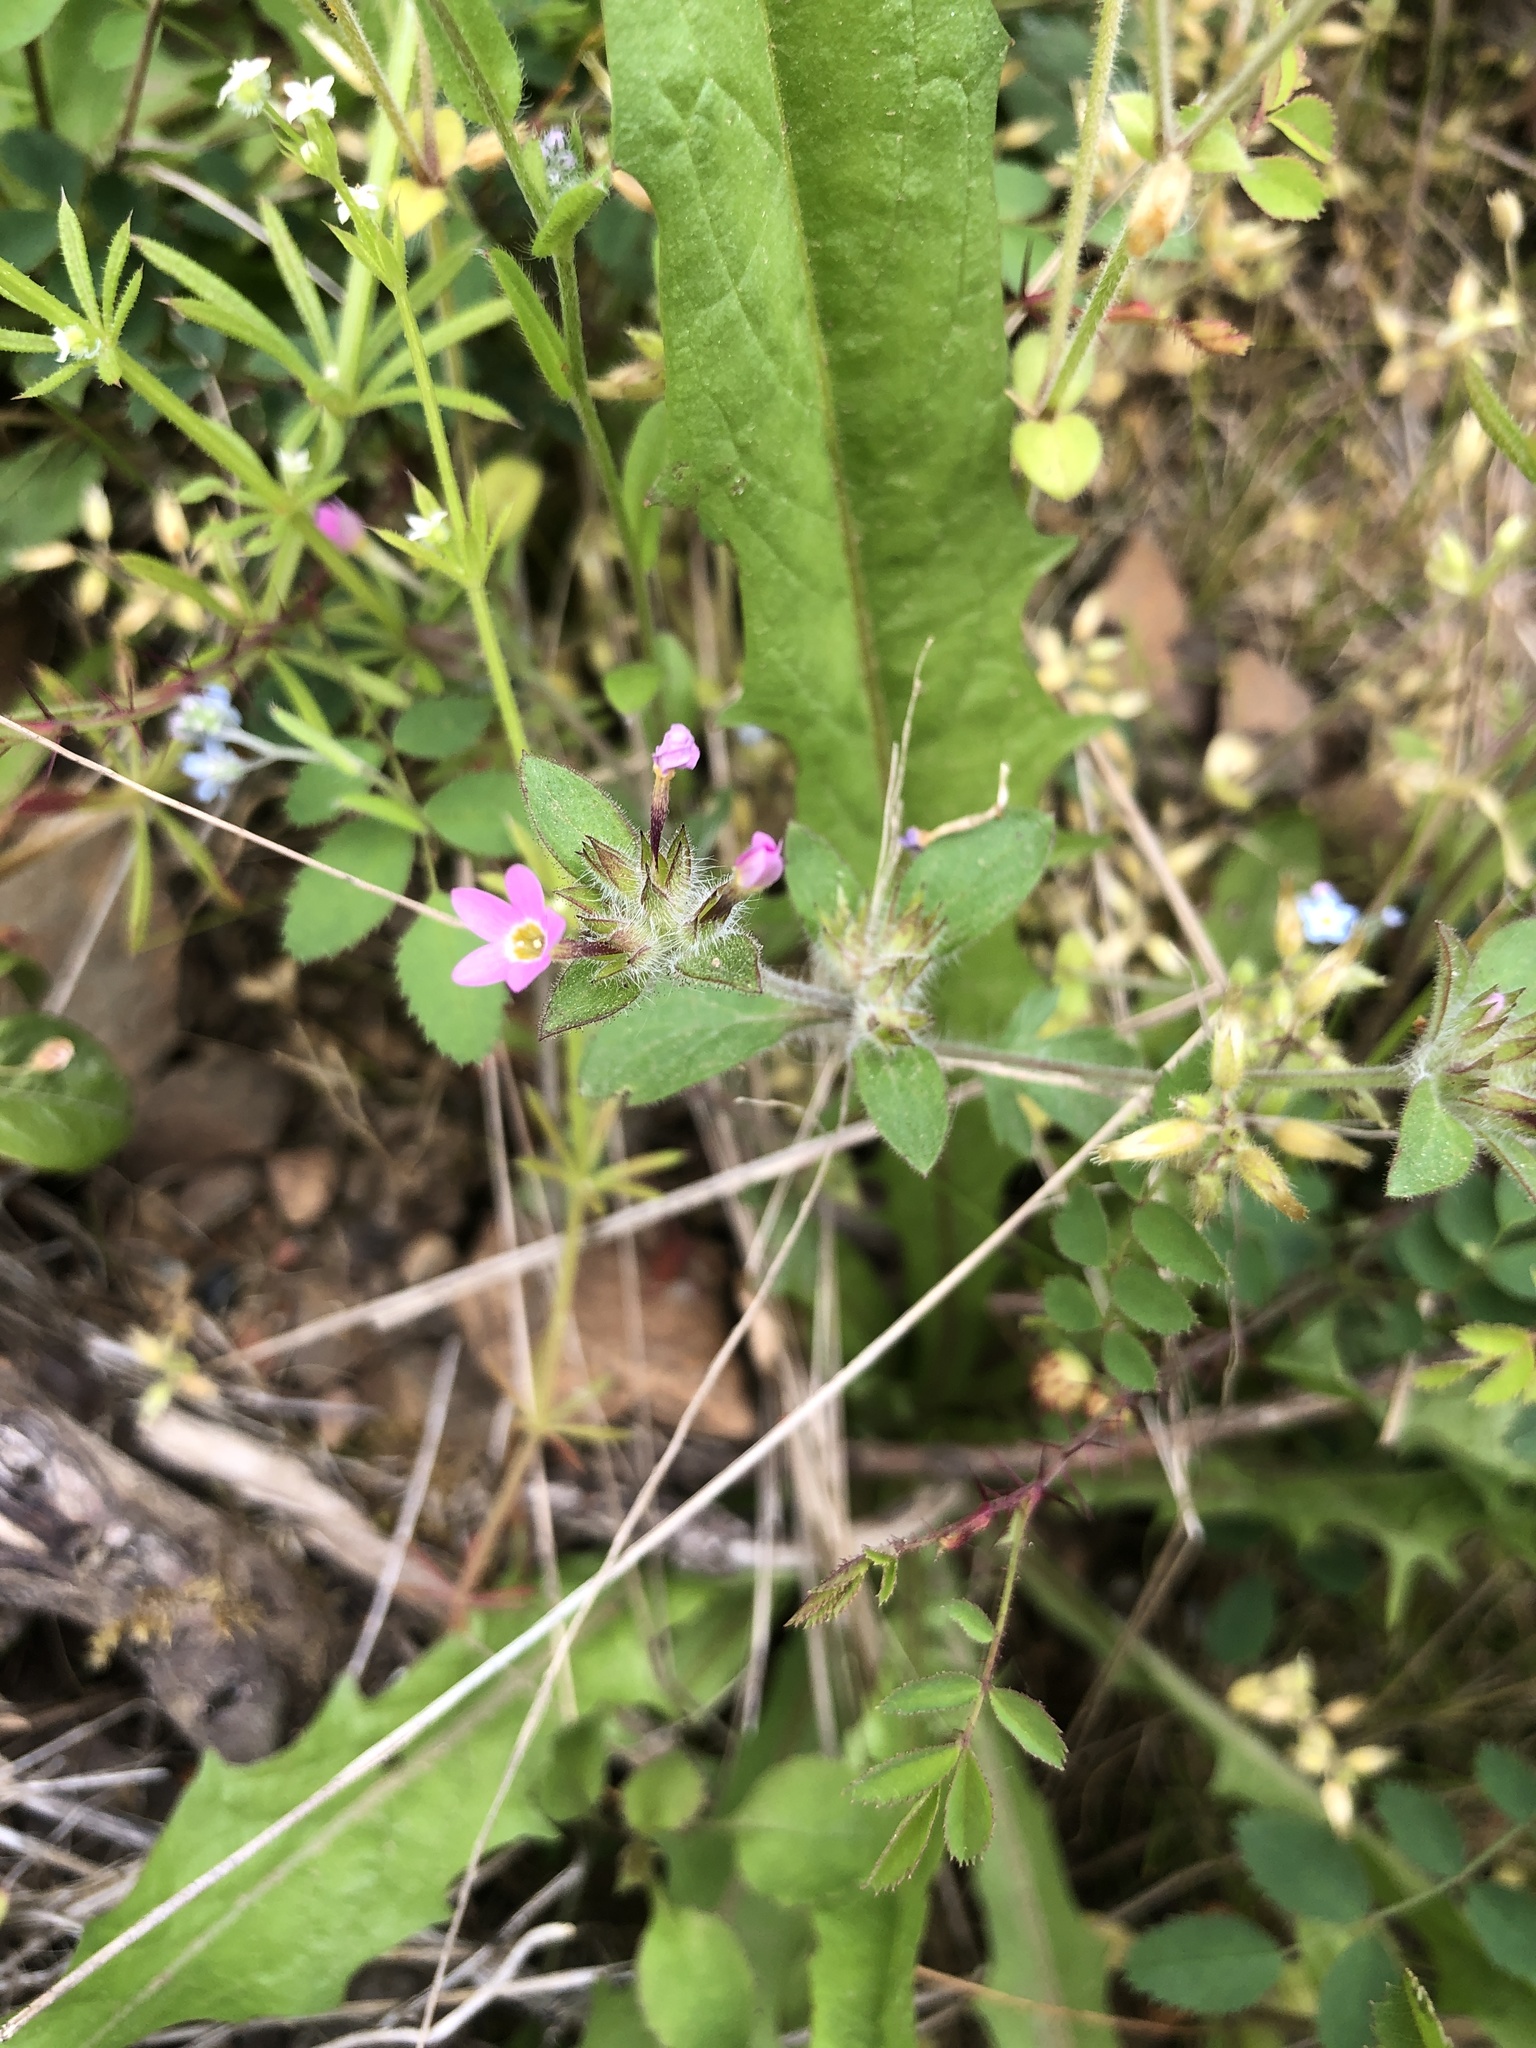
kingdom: Plantae
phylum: Tracheophyta
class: Magnoliopsida
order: Ericales
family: Polemoniaceae
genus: Collomia
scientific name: Collomia heterophylla
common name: Variable-leaved collomia
